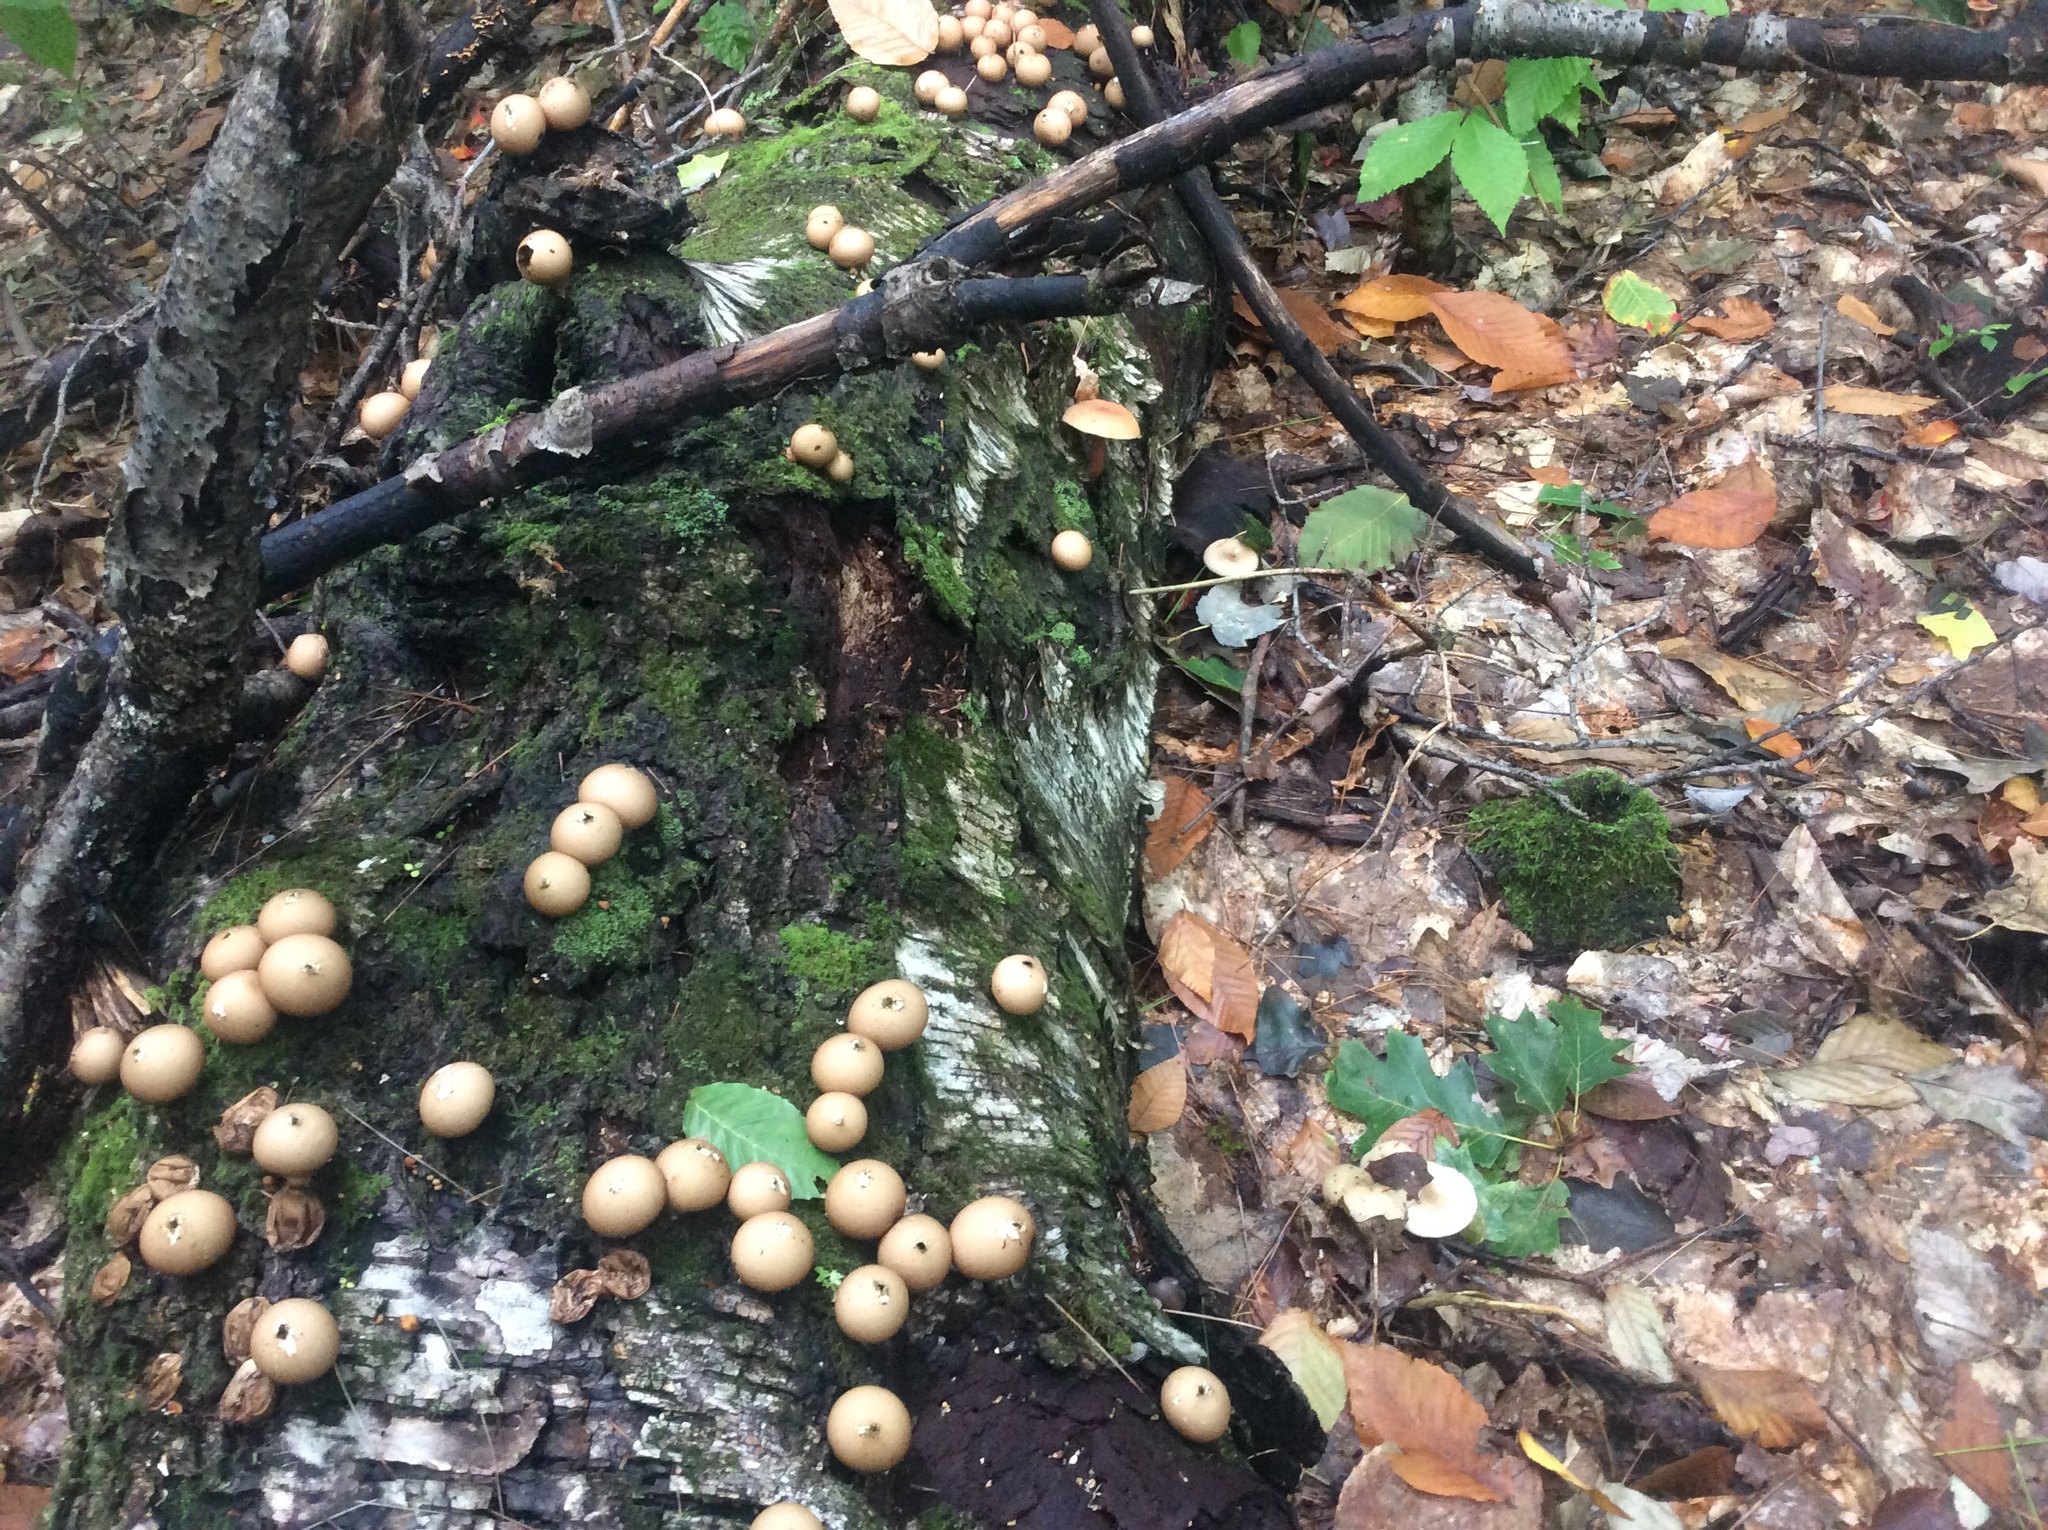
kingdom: Fungi
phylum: Basidiomycota
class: Agaricomycetes
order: Agaricales
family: Lycoperdaceae
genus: Apioperdon
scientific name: Apioperdon pyriforme
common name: Pear-shaped puffball
